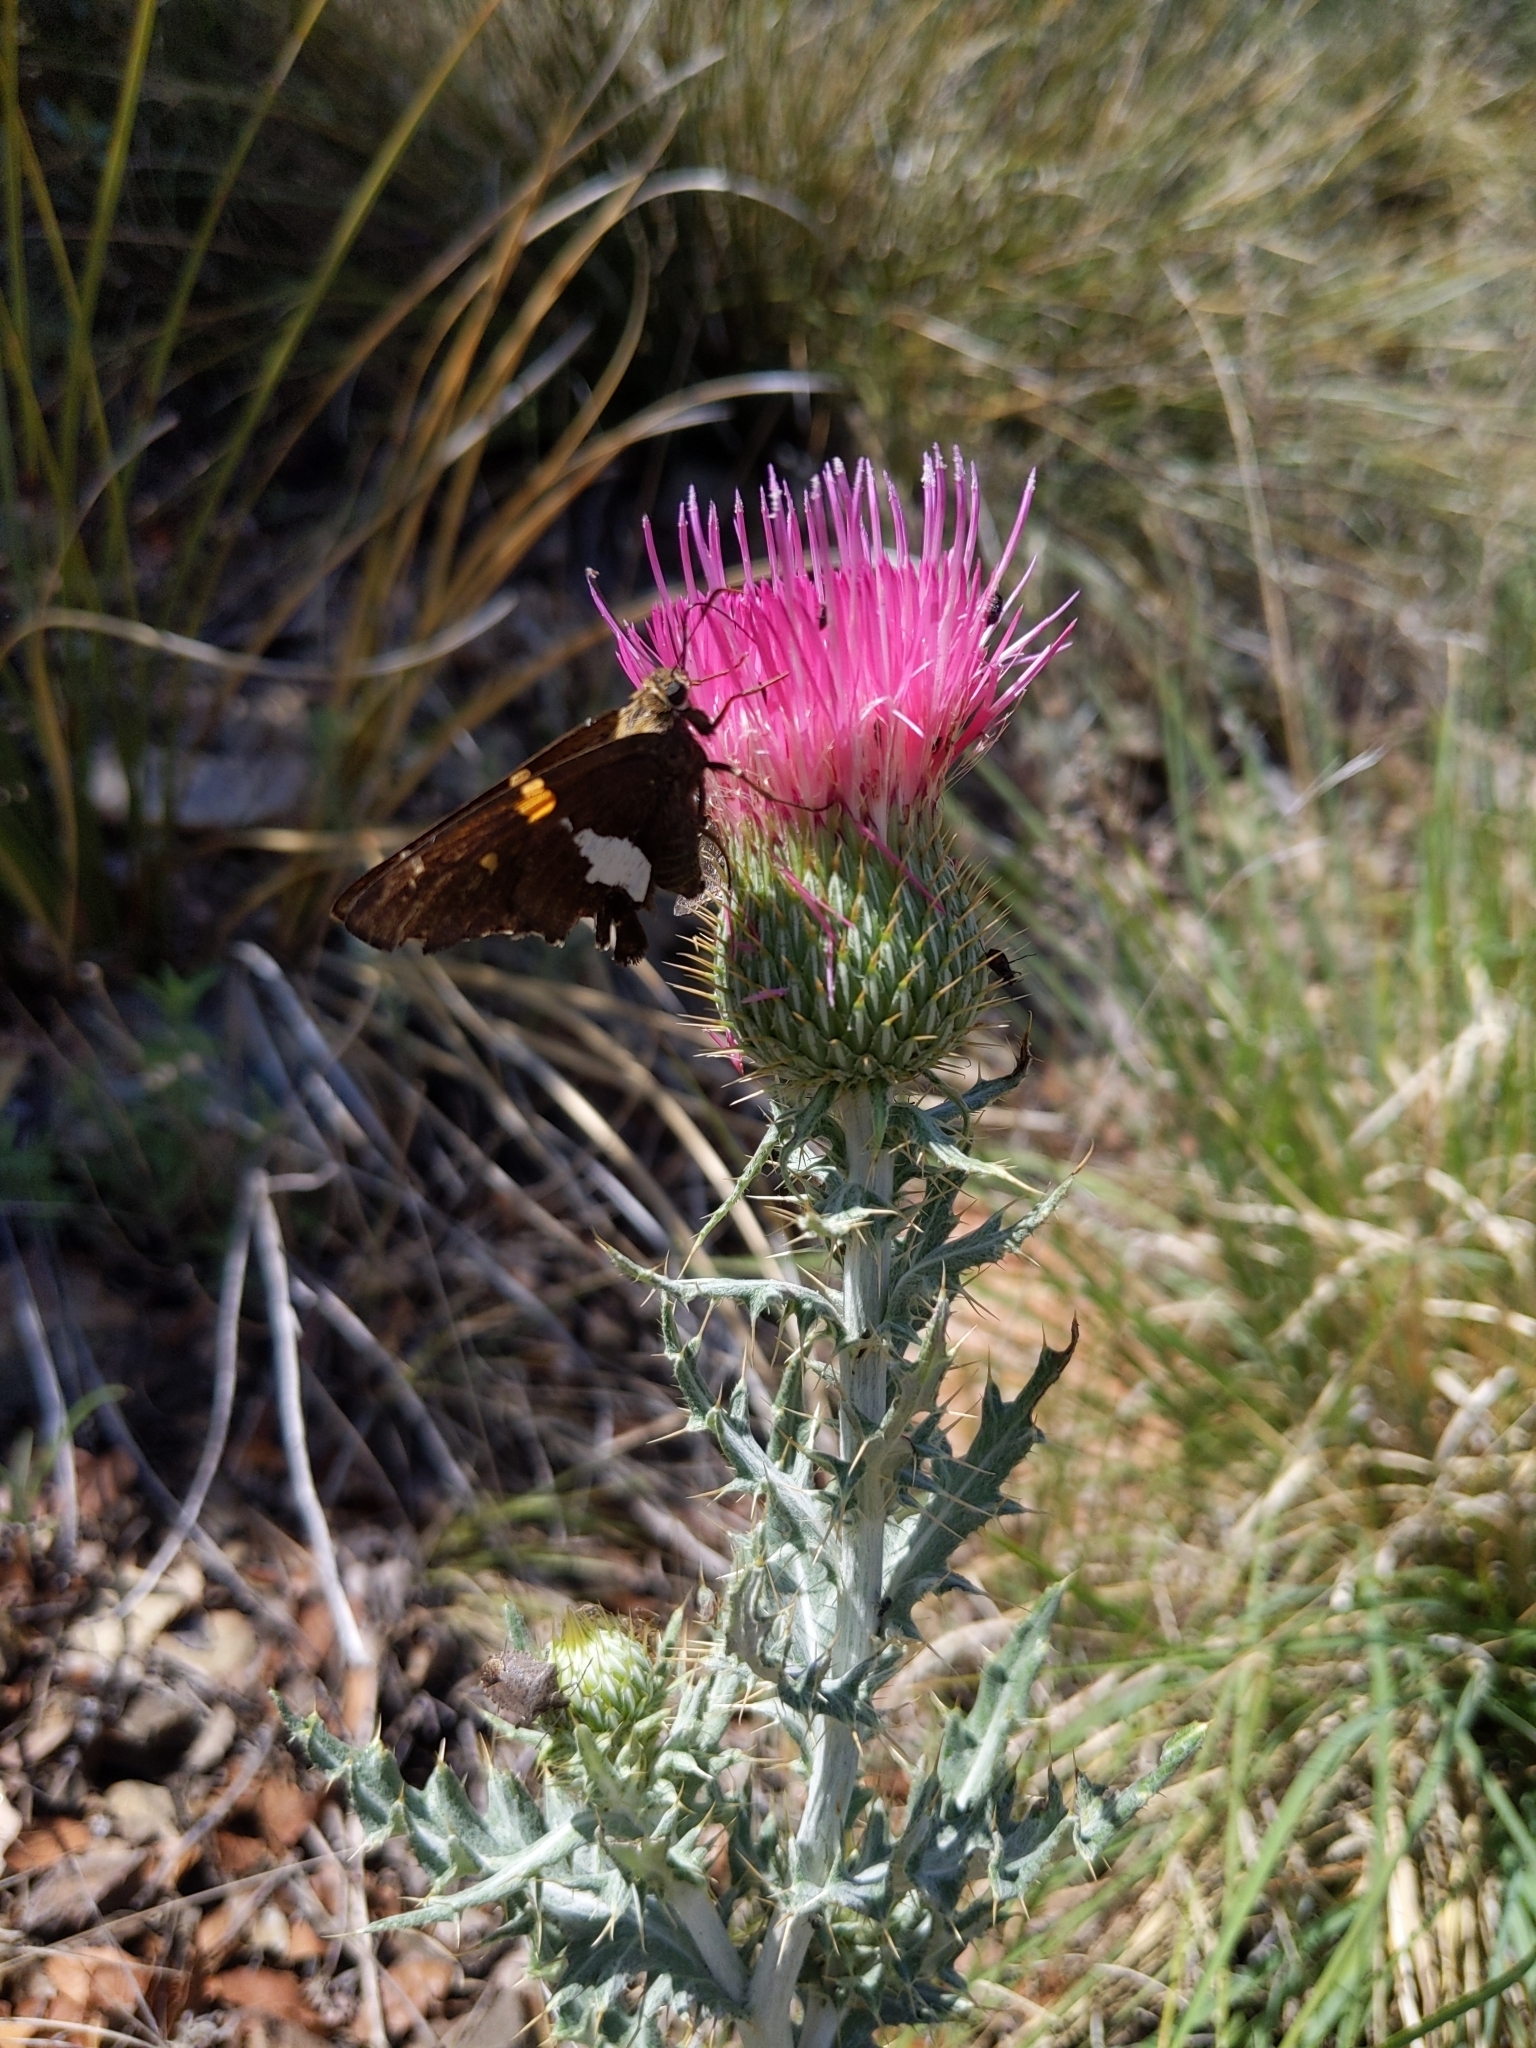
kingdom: Animalia
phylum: Arthropoda
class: Insecta
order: Lepidoptera
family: Hesperiidae
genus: Epargyreus
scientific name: Epargyreus clarus
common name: Silver-spotted skipper
